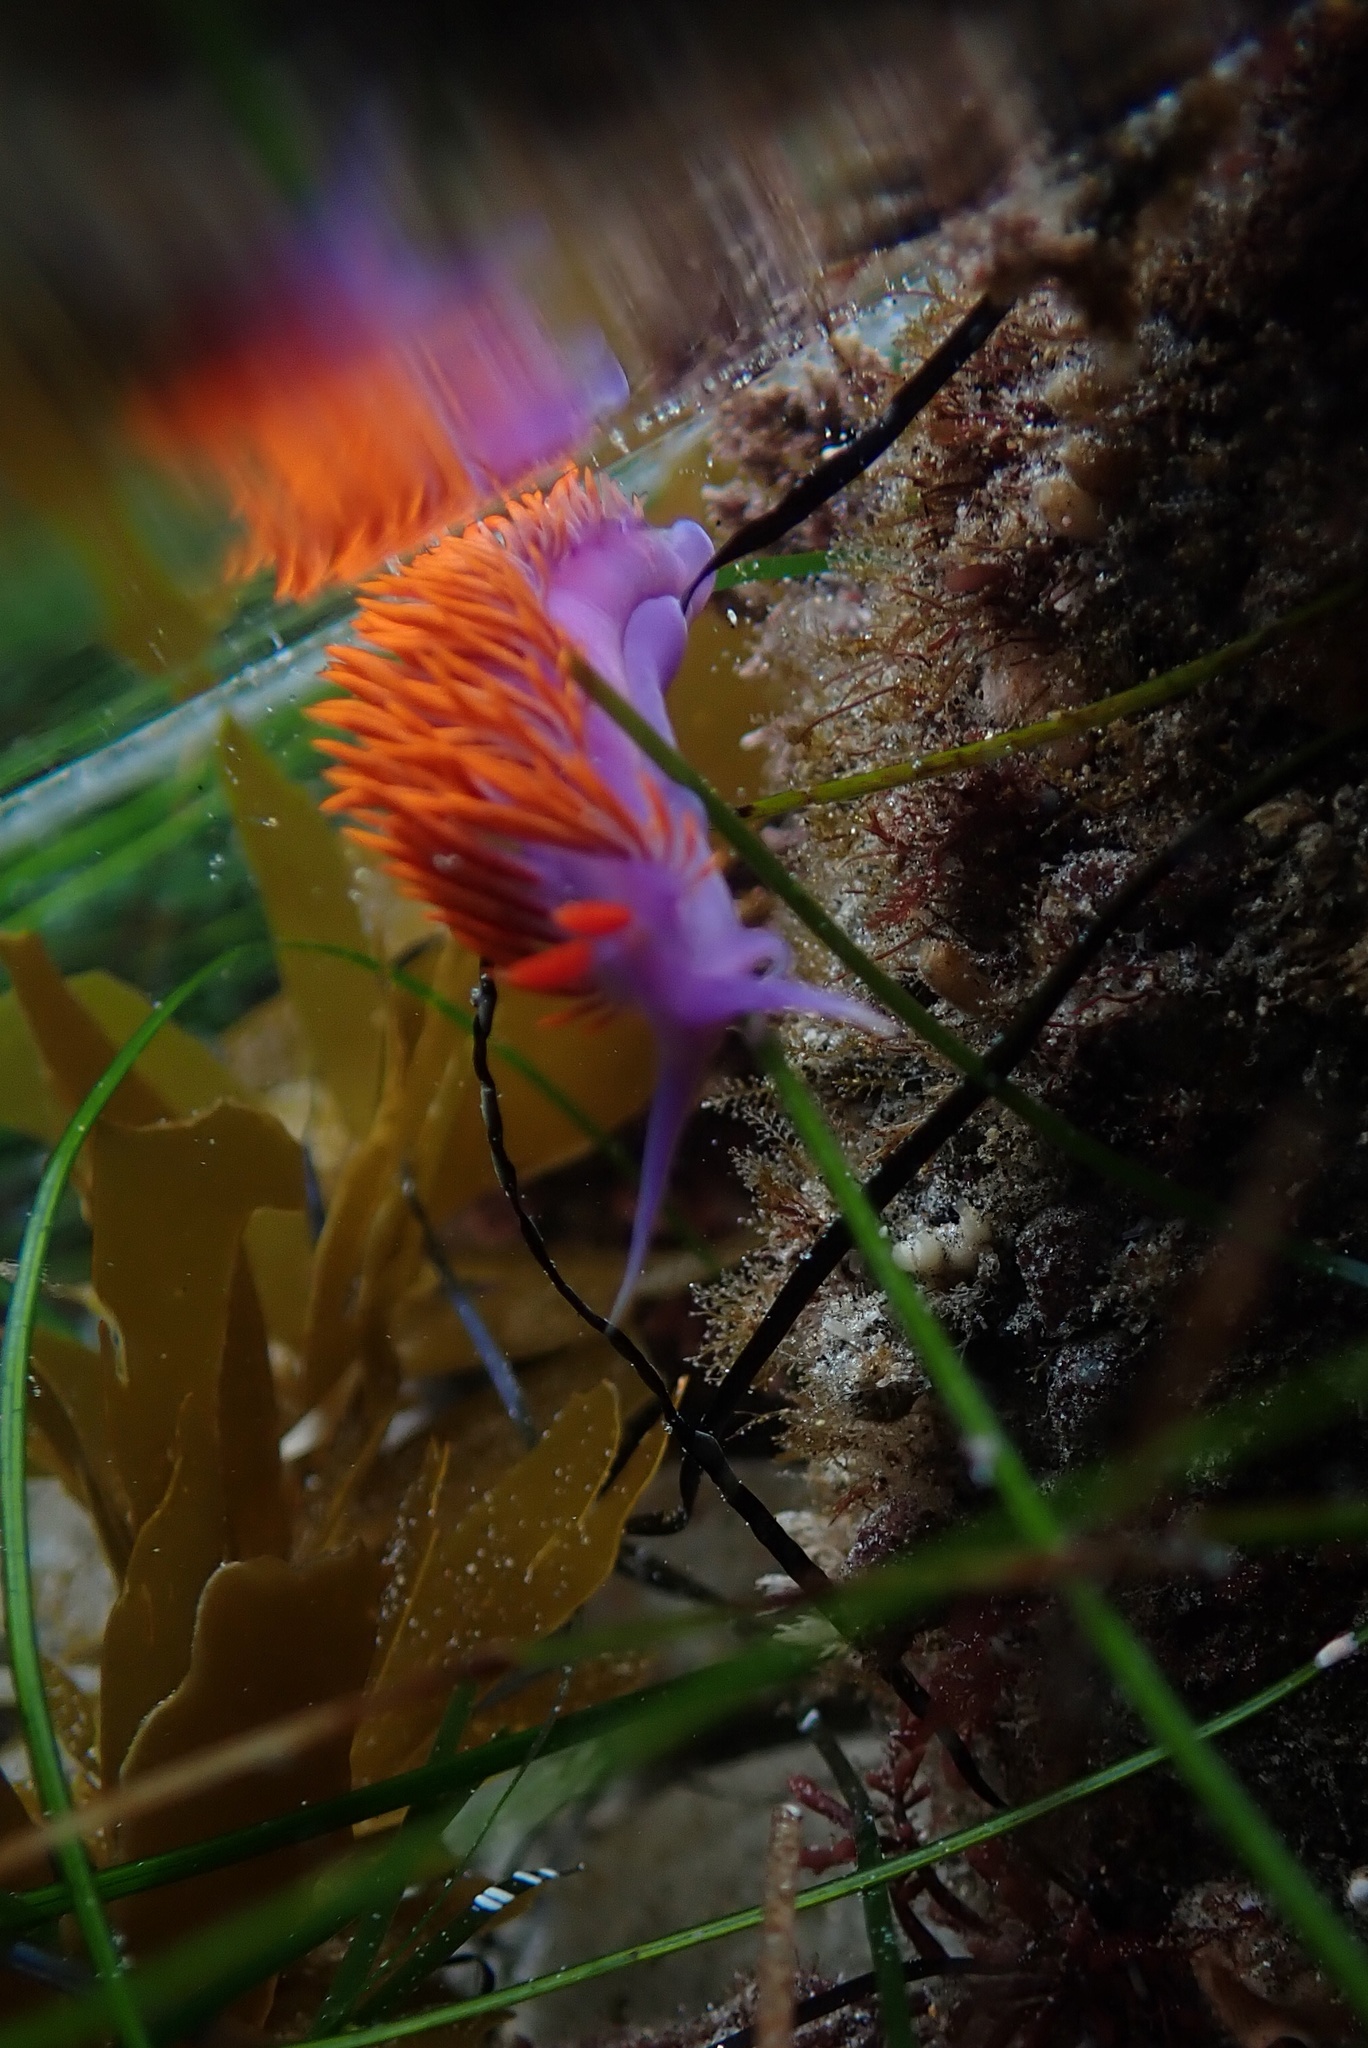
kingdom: Animalia
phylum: Mollusca
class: Gastropoda
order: Nudibranchia
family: Flabellinopsidae
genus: Flabellinopsis
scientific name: Flabellinopsis iodinea
